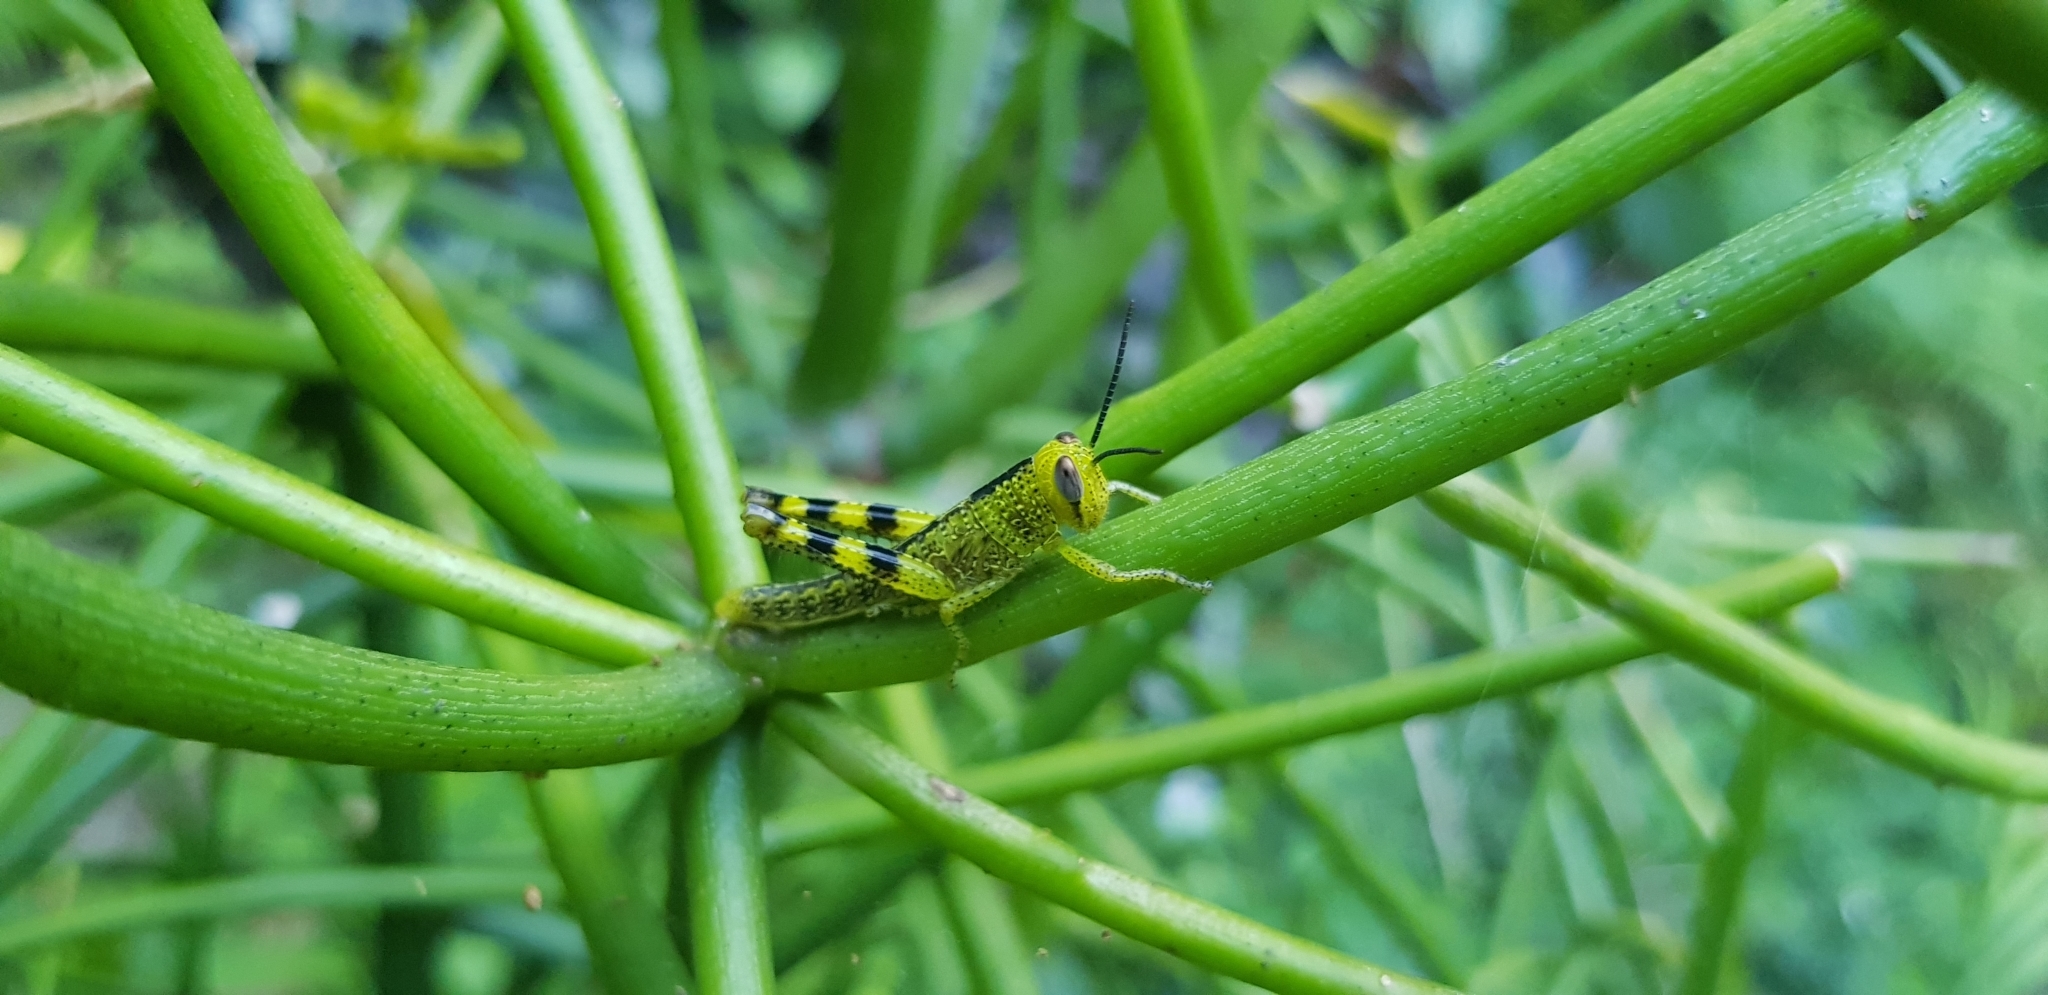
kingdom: Animalia
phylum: Arthropoda
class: Insecta
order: Orthoptera
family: Acrididae
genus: Valanga
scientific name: Valanga irregularis
